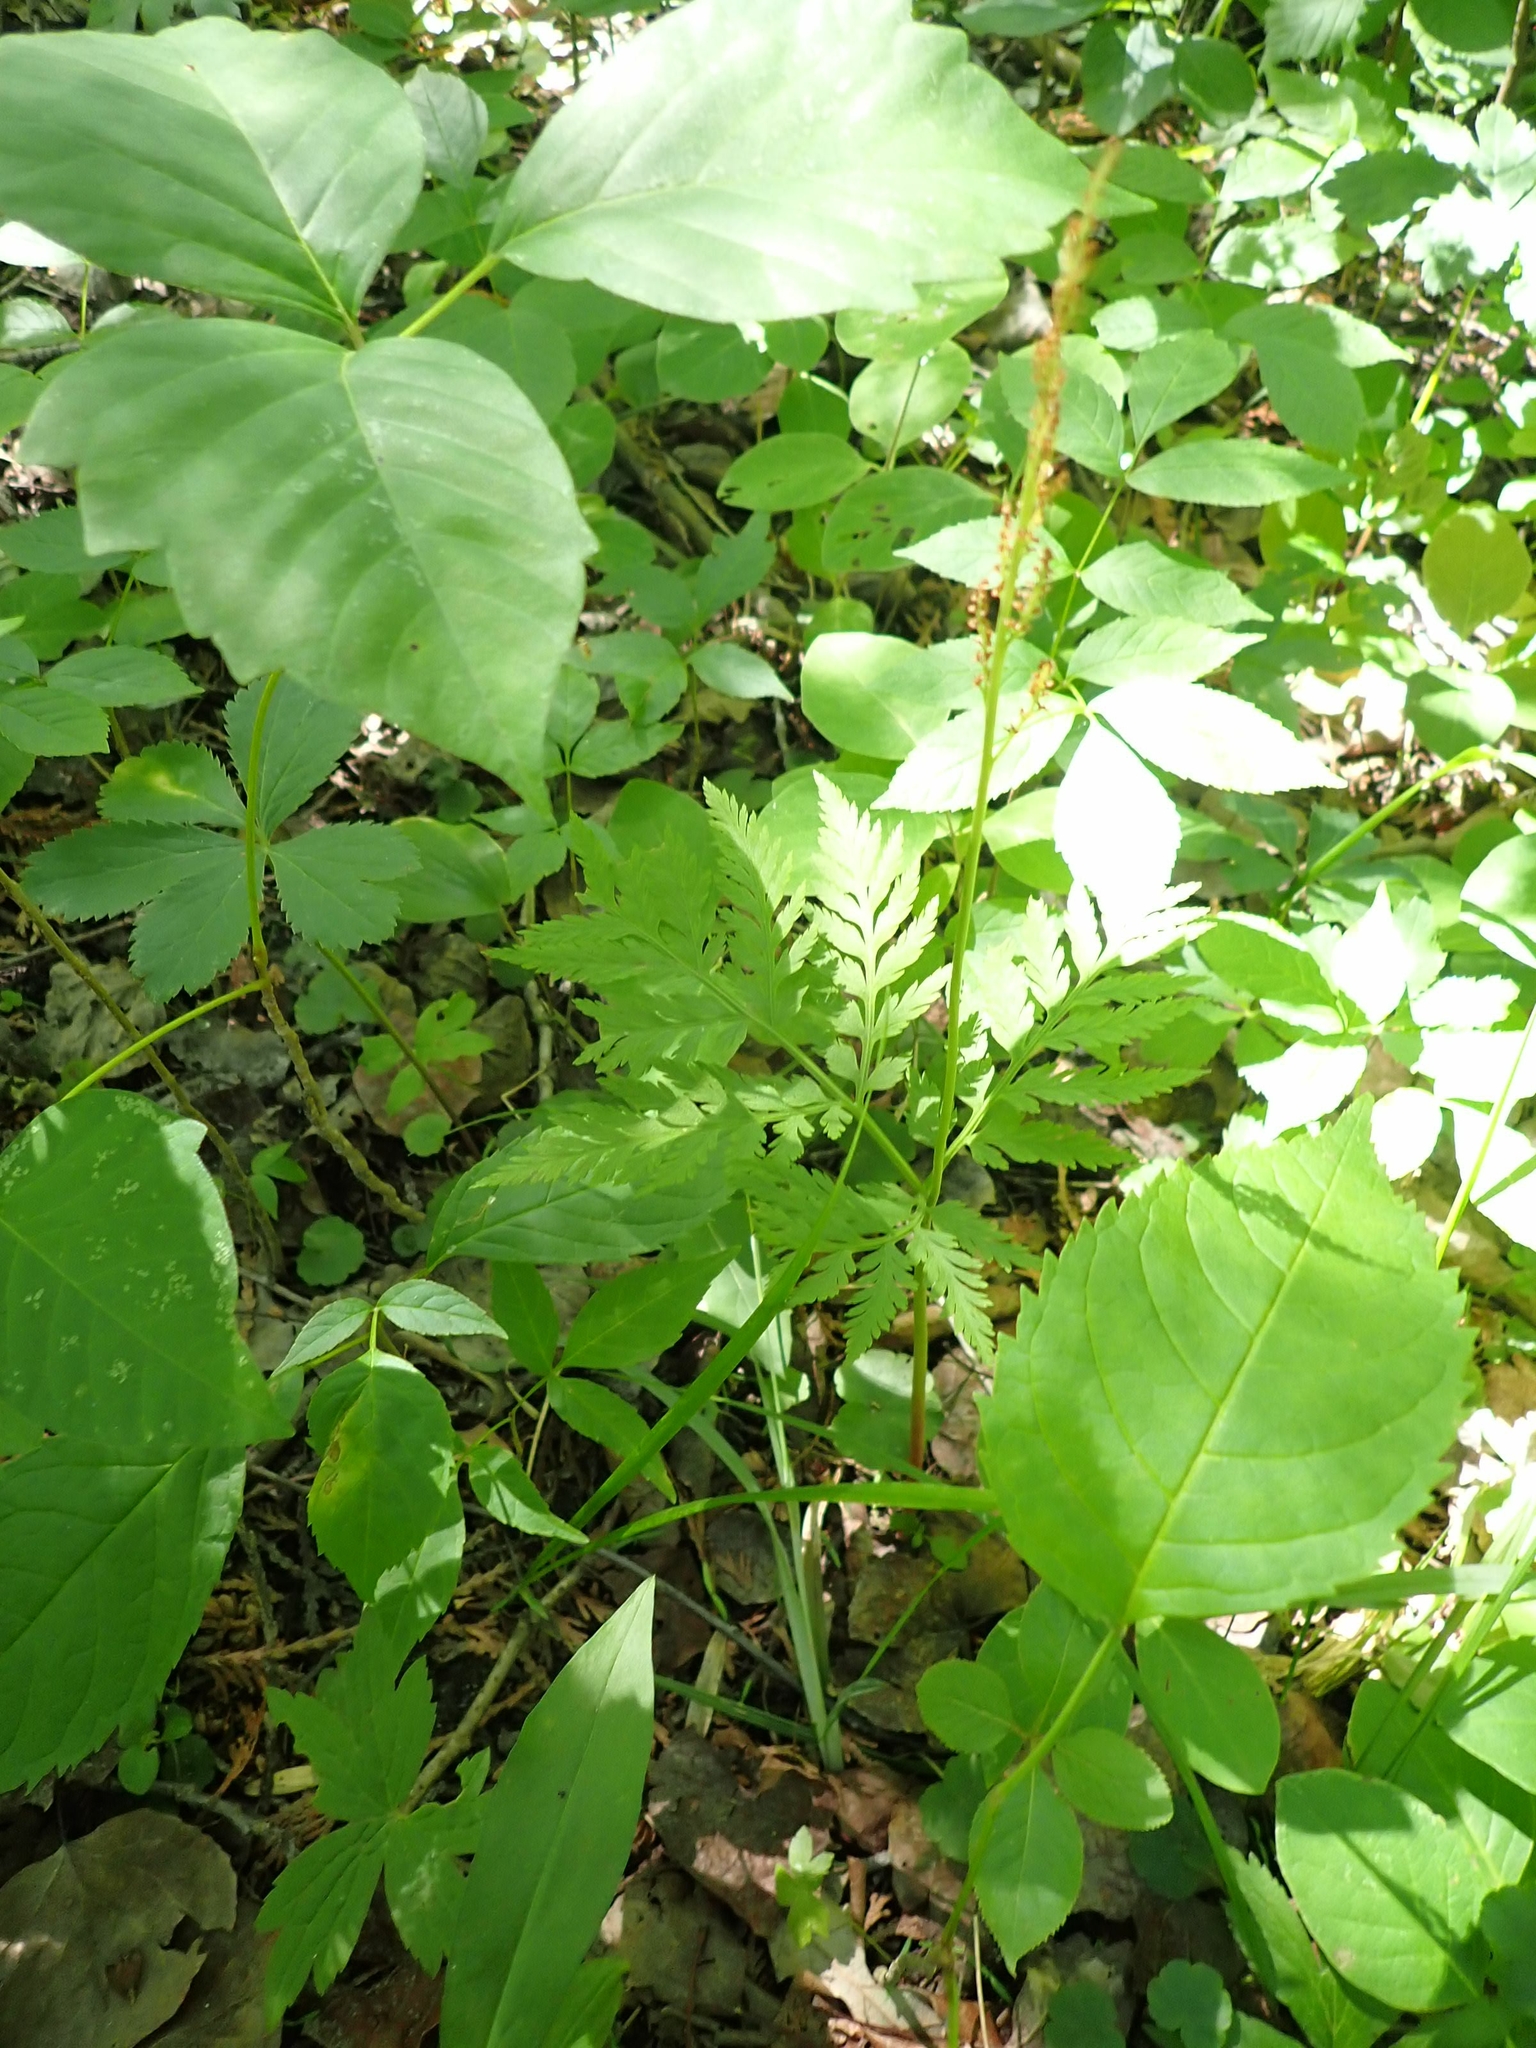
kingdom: Plantae
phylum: Tracheophyta
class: Polypodiopsida
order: Ophioglossales
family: Ophioglossaceae
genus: Botrypus
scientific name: Botrypus virginianus
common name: Common grapefern
